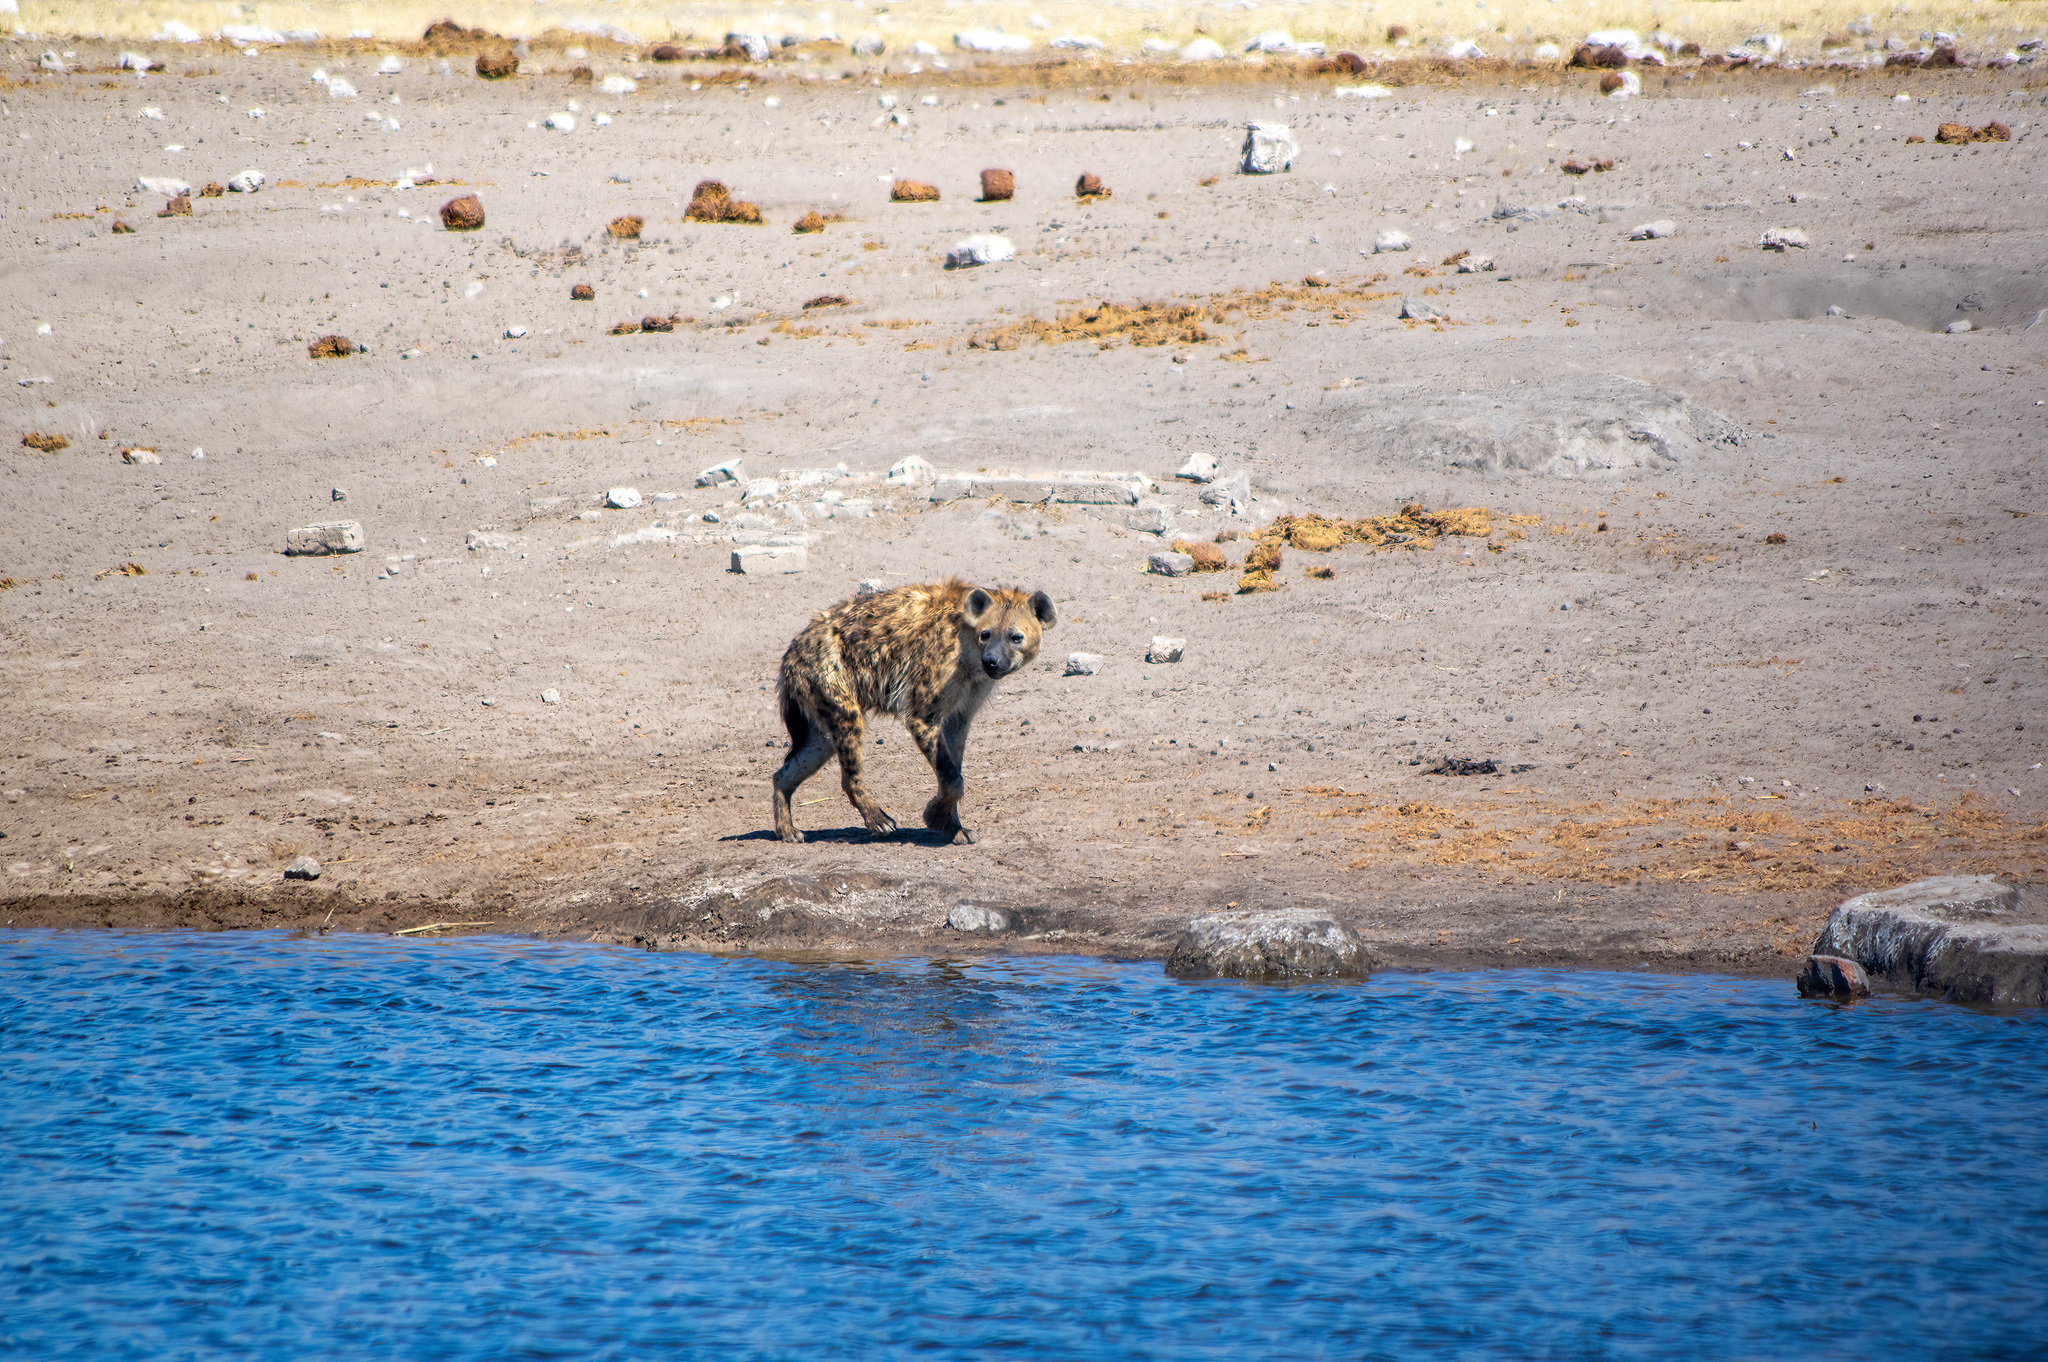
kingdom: Animalia
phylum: Chordata
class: Mammalia
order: Carnivora
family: Hyaenidae
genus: Crocuta
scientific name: Crocuta crocuta
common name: Spotted hyaena
